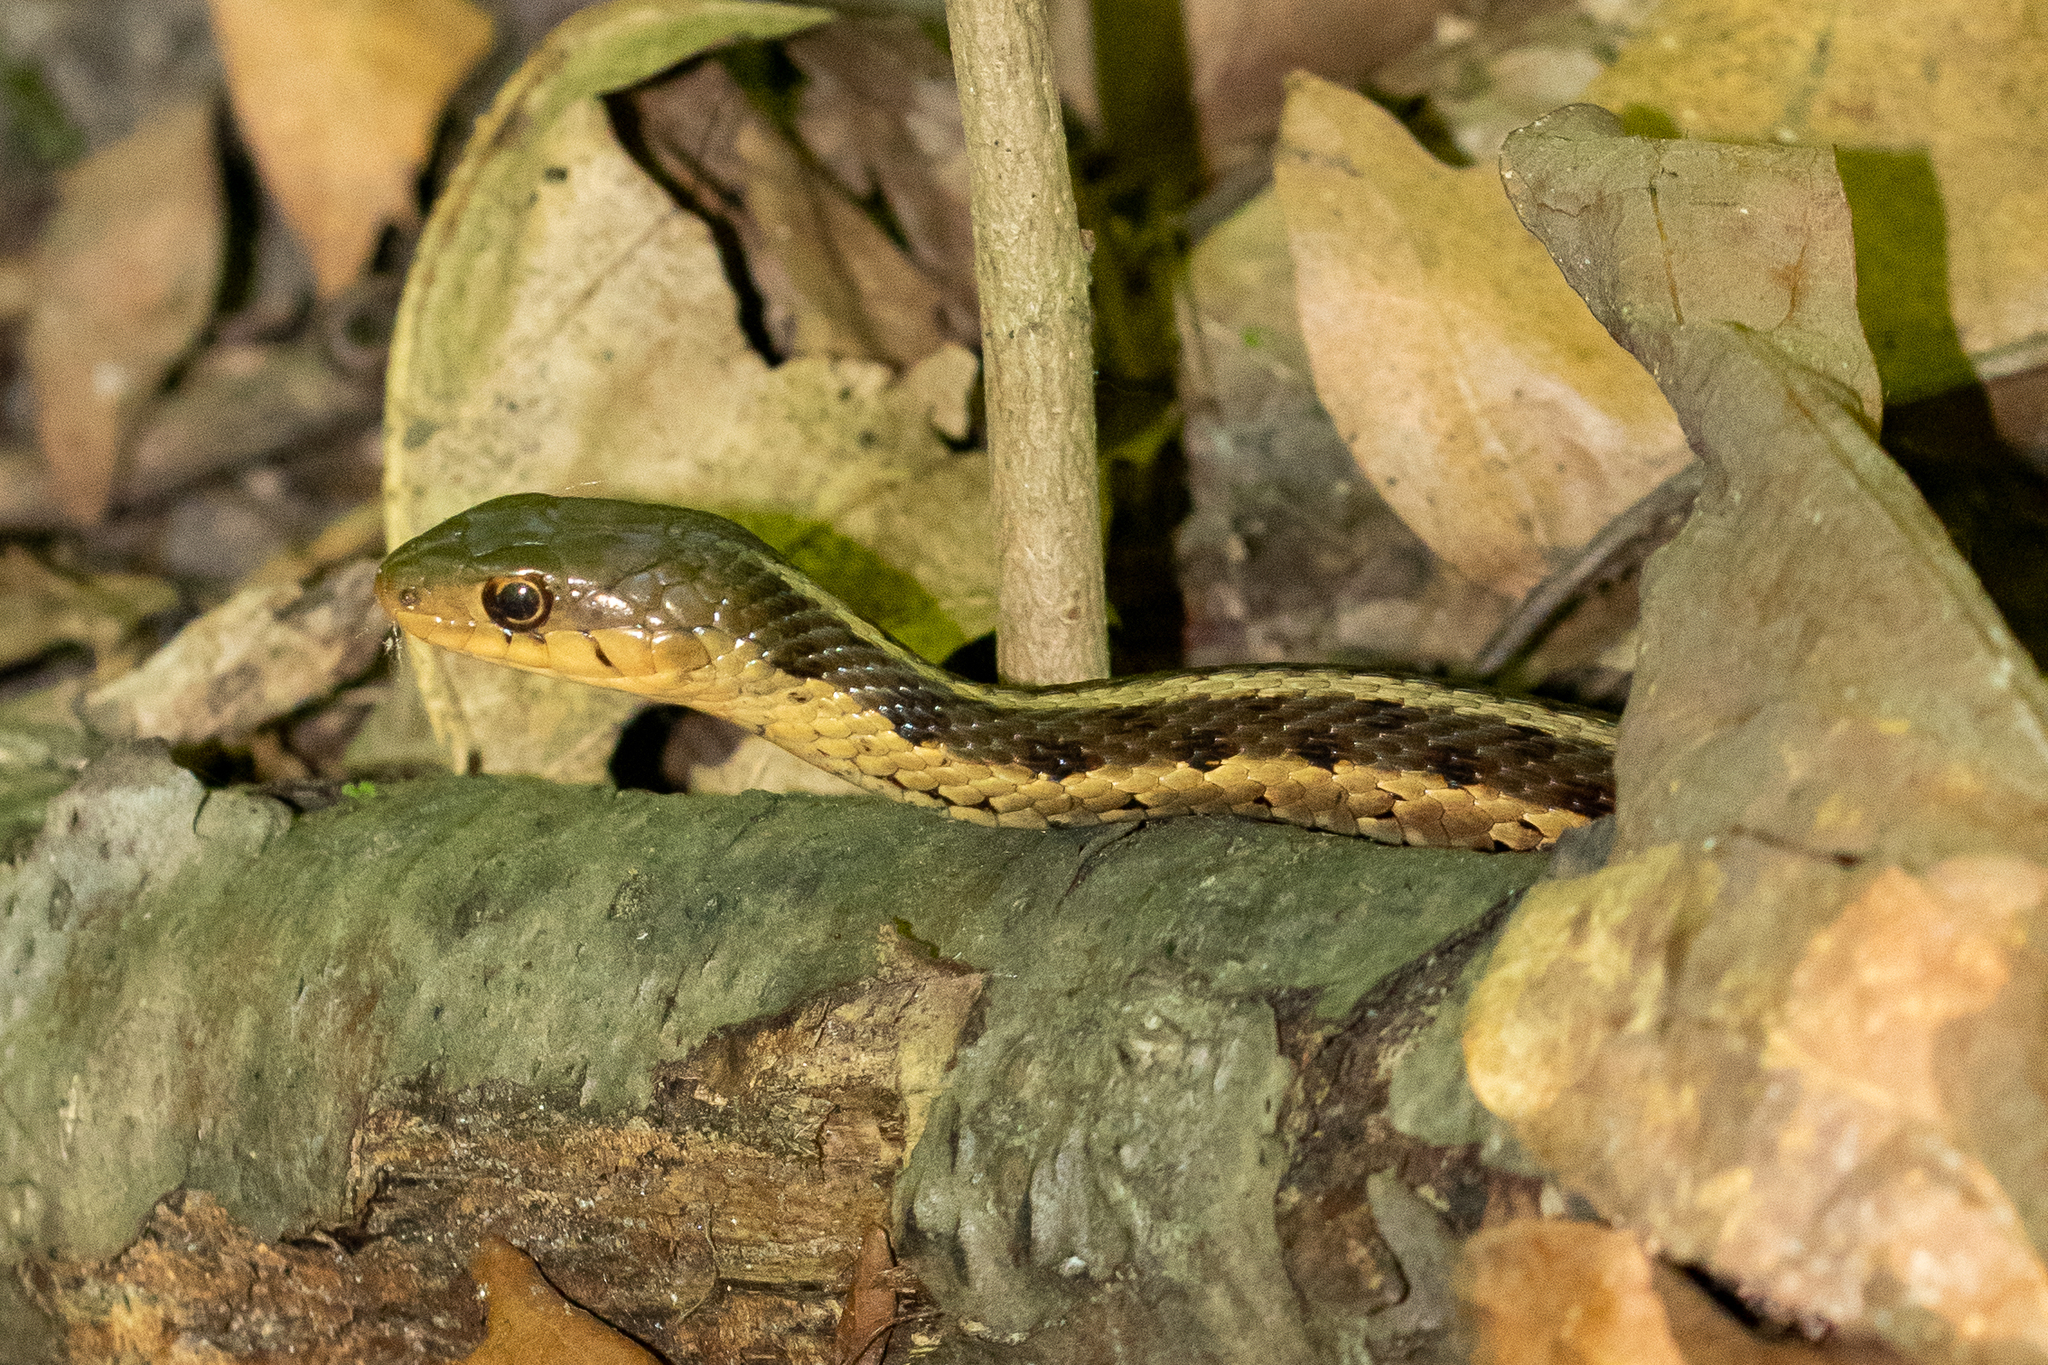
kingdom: Animalia
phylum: Chordata
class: Squamata
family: Colubridae
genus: Thamnophis
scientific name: Thamnophis sirtalis
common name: Common garter snake
